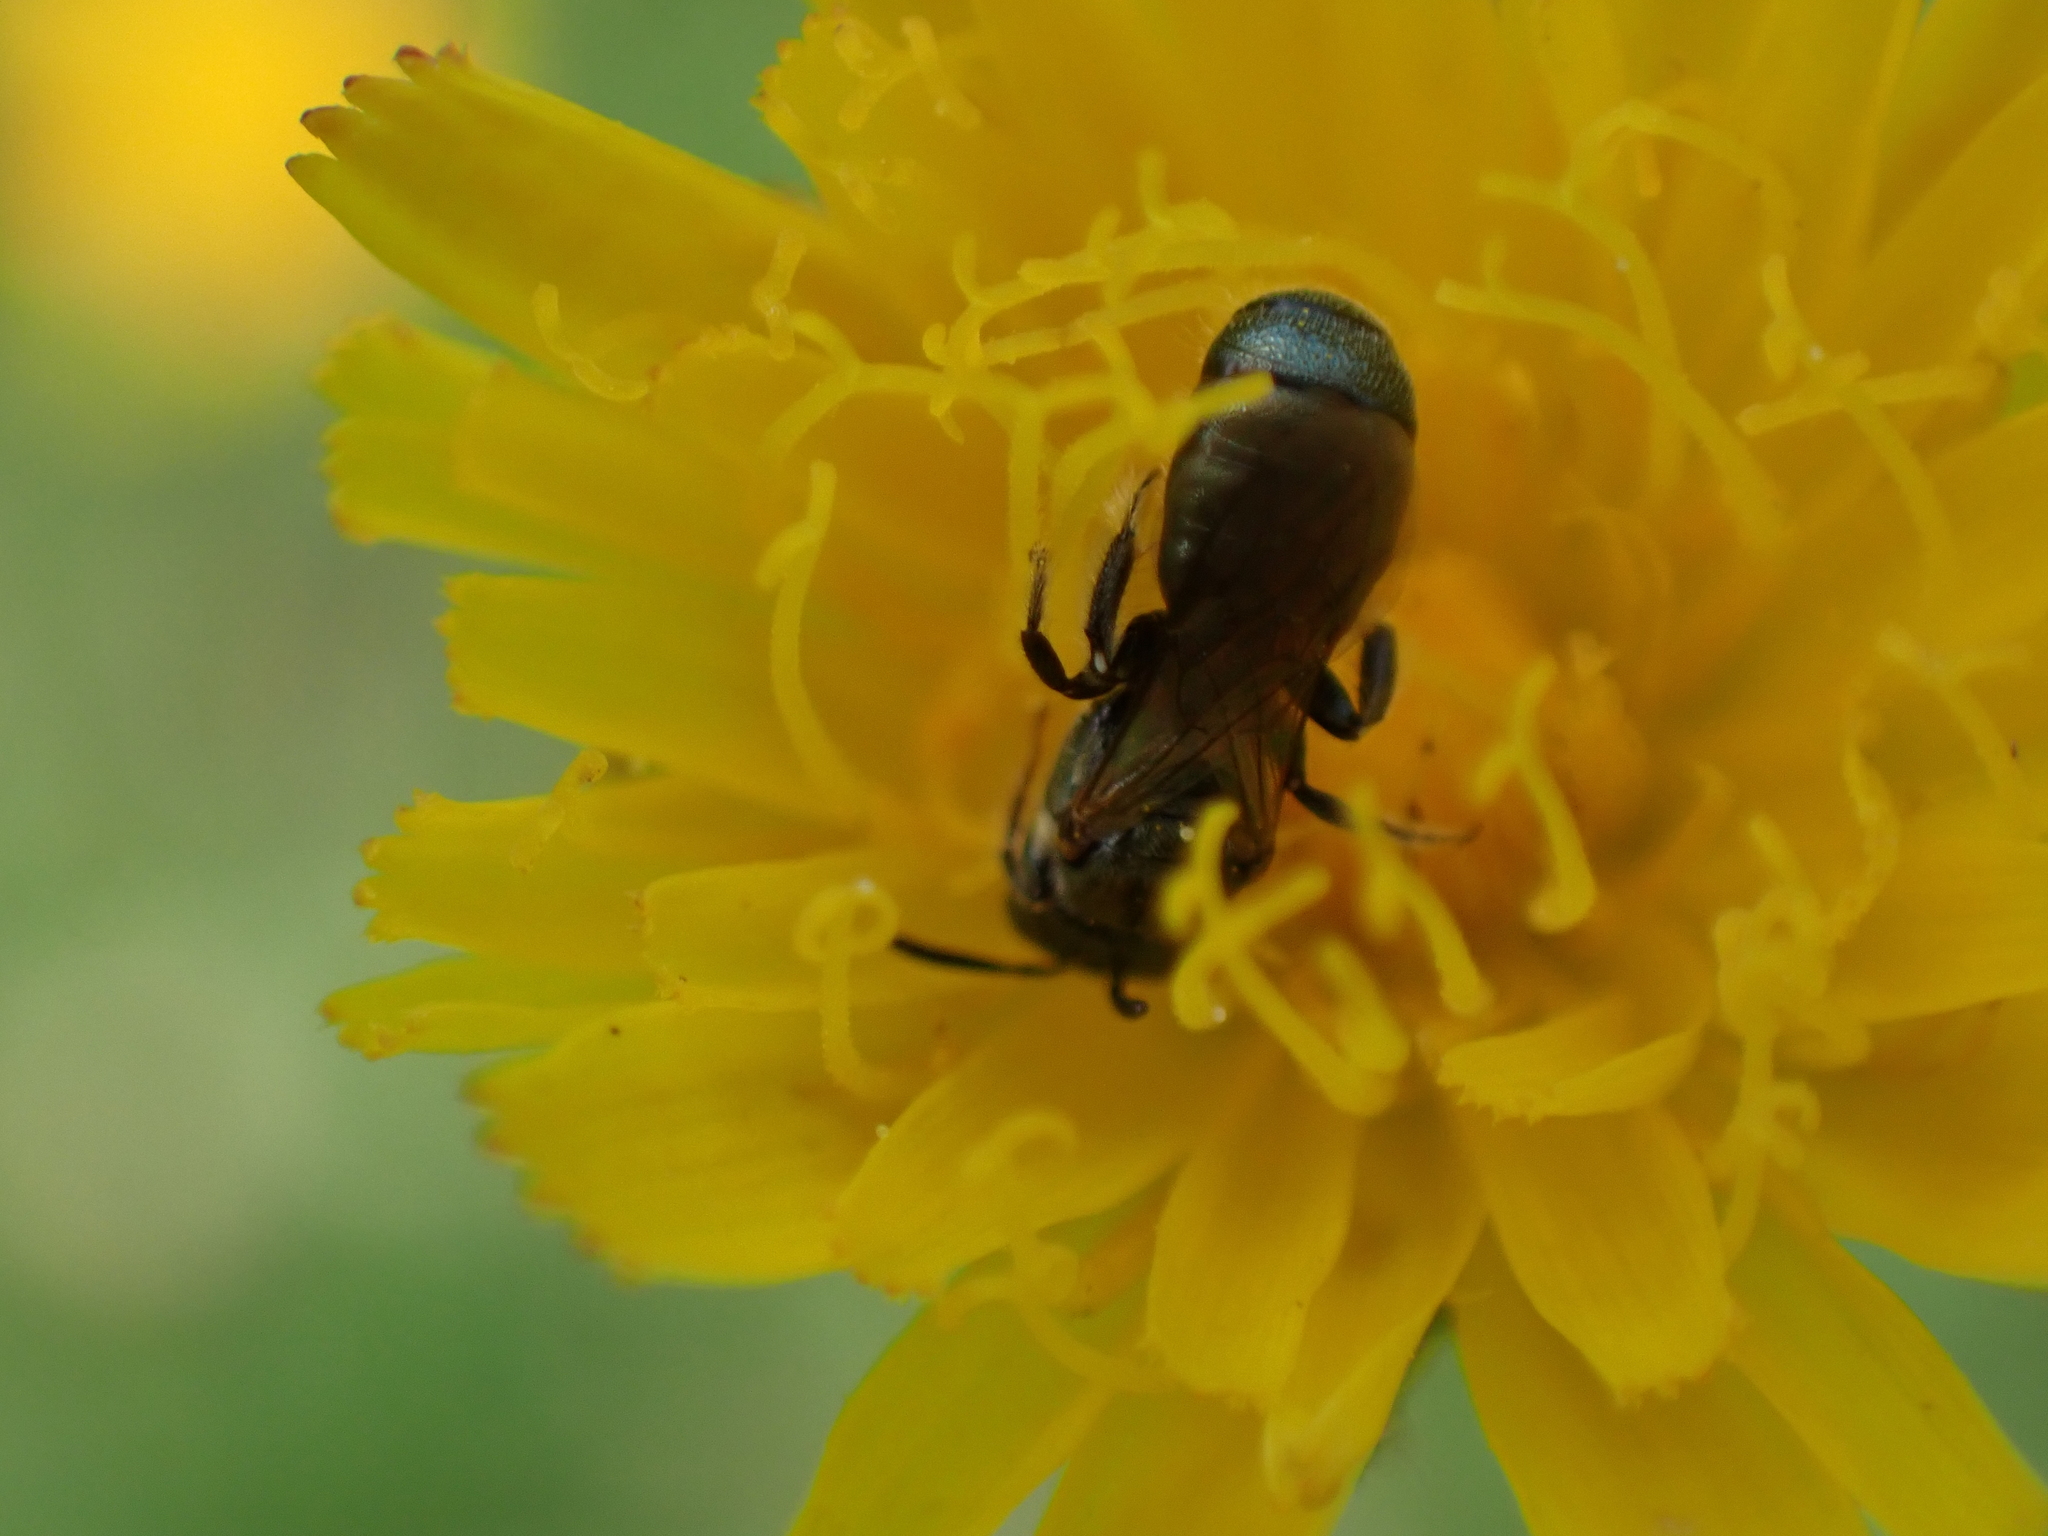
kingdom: Animalia
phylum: Arthropoda
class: Insecta
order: Hymenoptera
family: Apidae
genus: Ceratina
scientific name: Ceratina strenua
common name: Nimble carpenter bee
